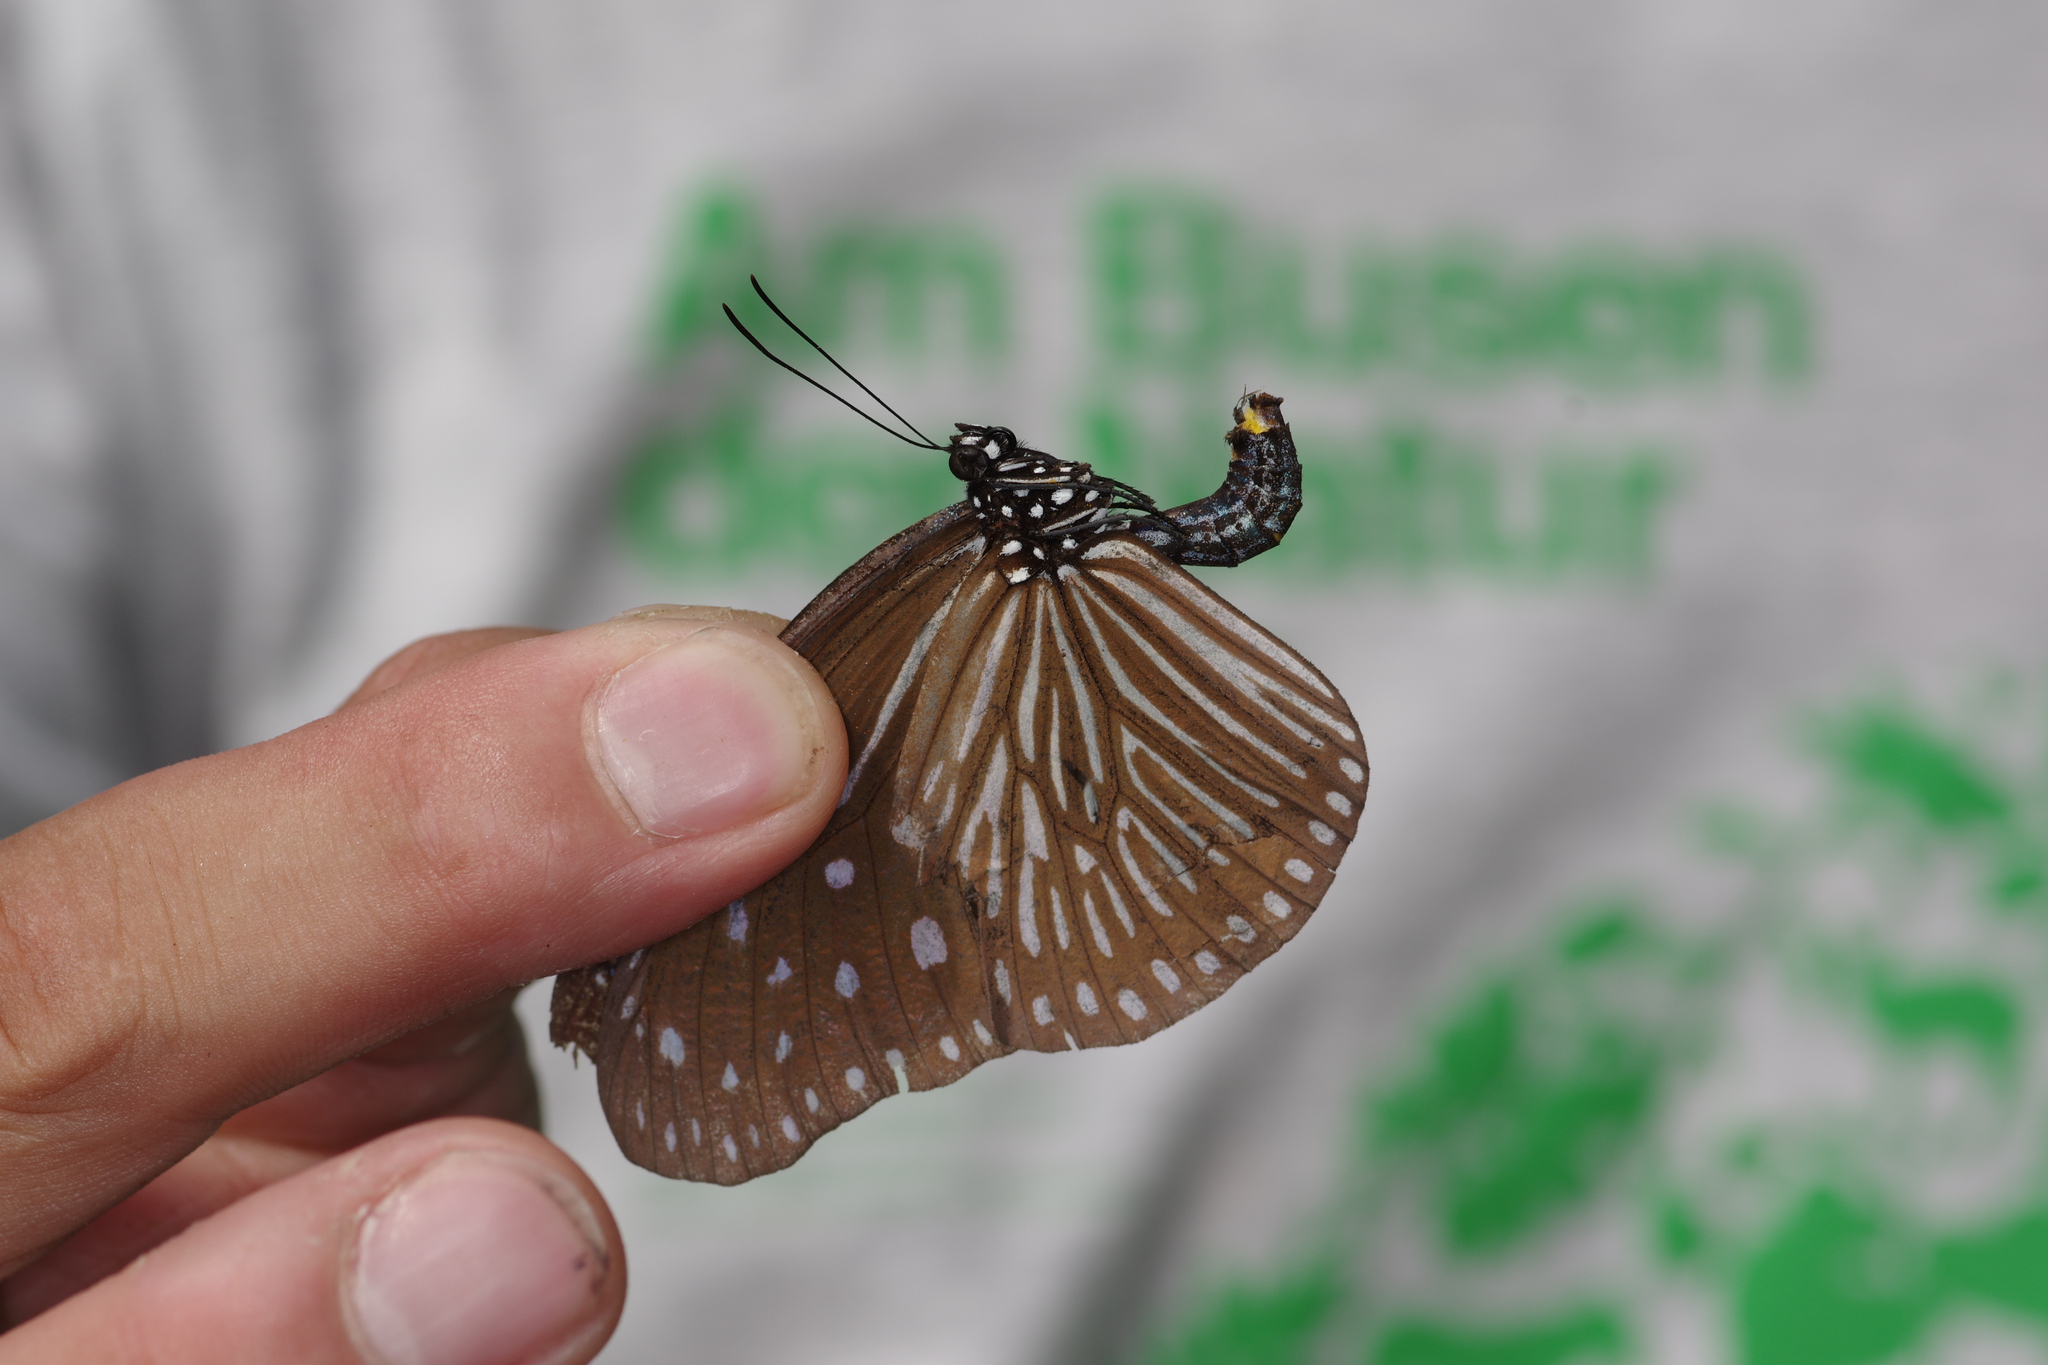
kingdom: Animalia
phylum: Arthropoda
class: Insecta
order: Lepidoptera
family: Nymphalidae
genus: Euploea
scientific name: Euploea mulciber
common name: Striped blue crow butterfly
